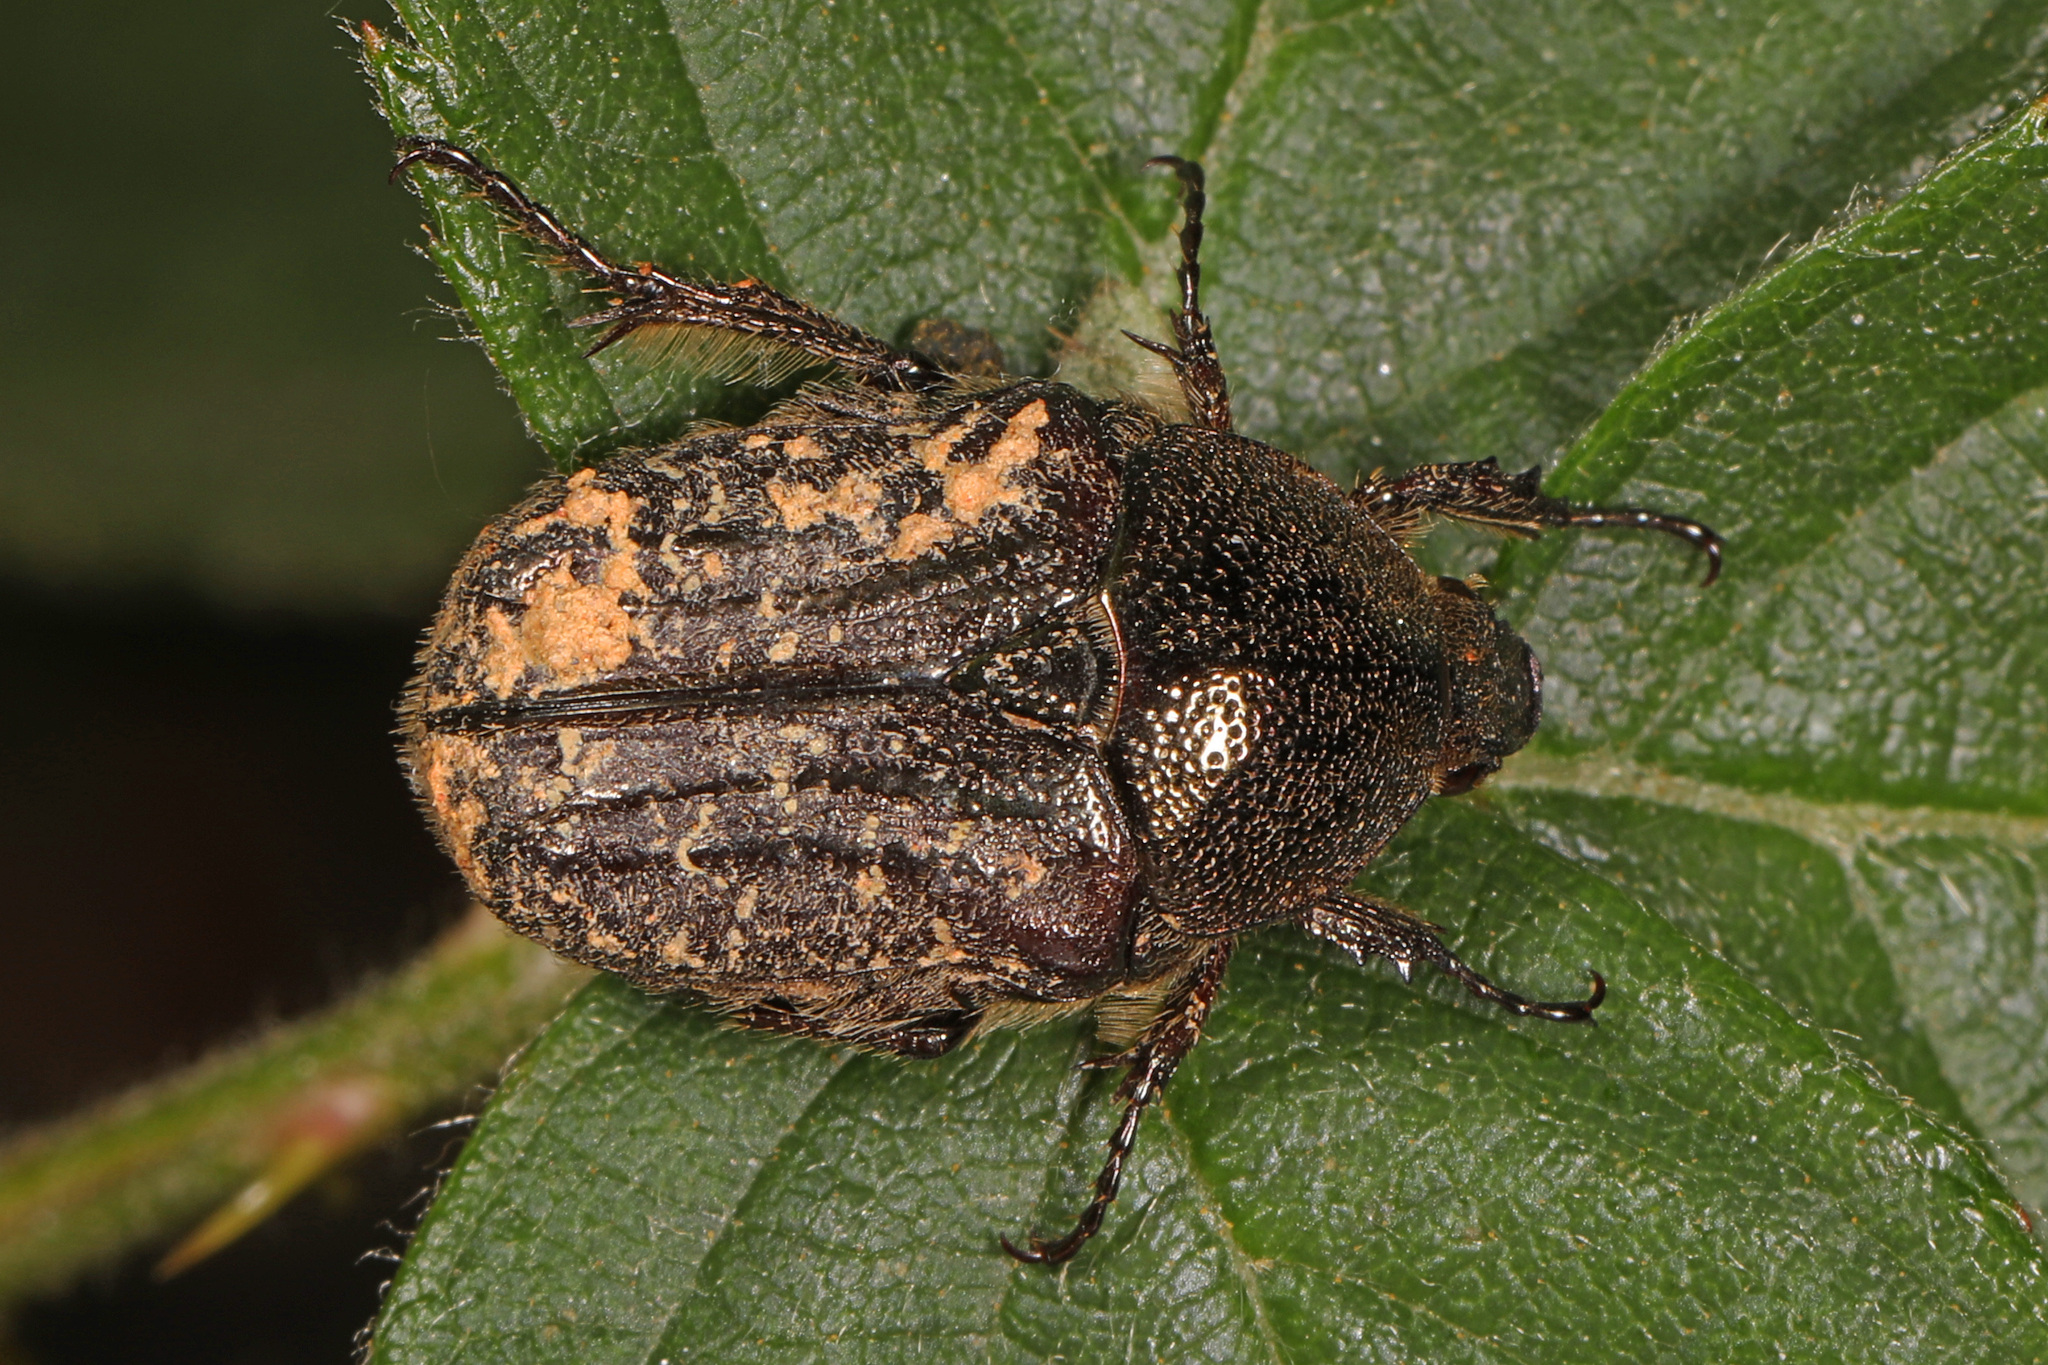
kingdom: Animalia
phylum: Arthropoda
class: Insecta
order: Coleoptera
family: Scarabaeidae
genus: Euphoria
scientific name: Euphoria sepulcralis
